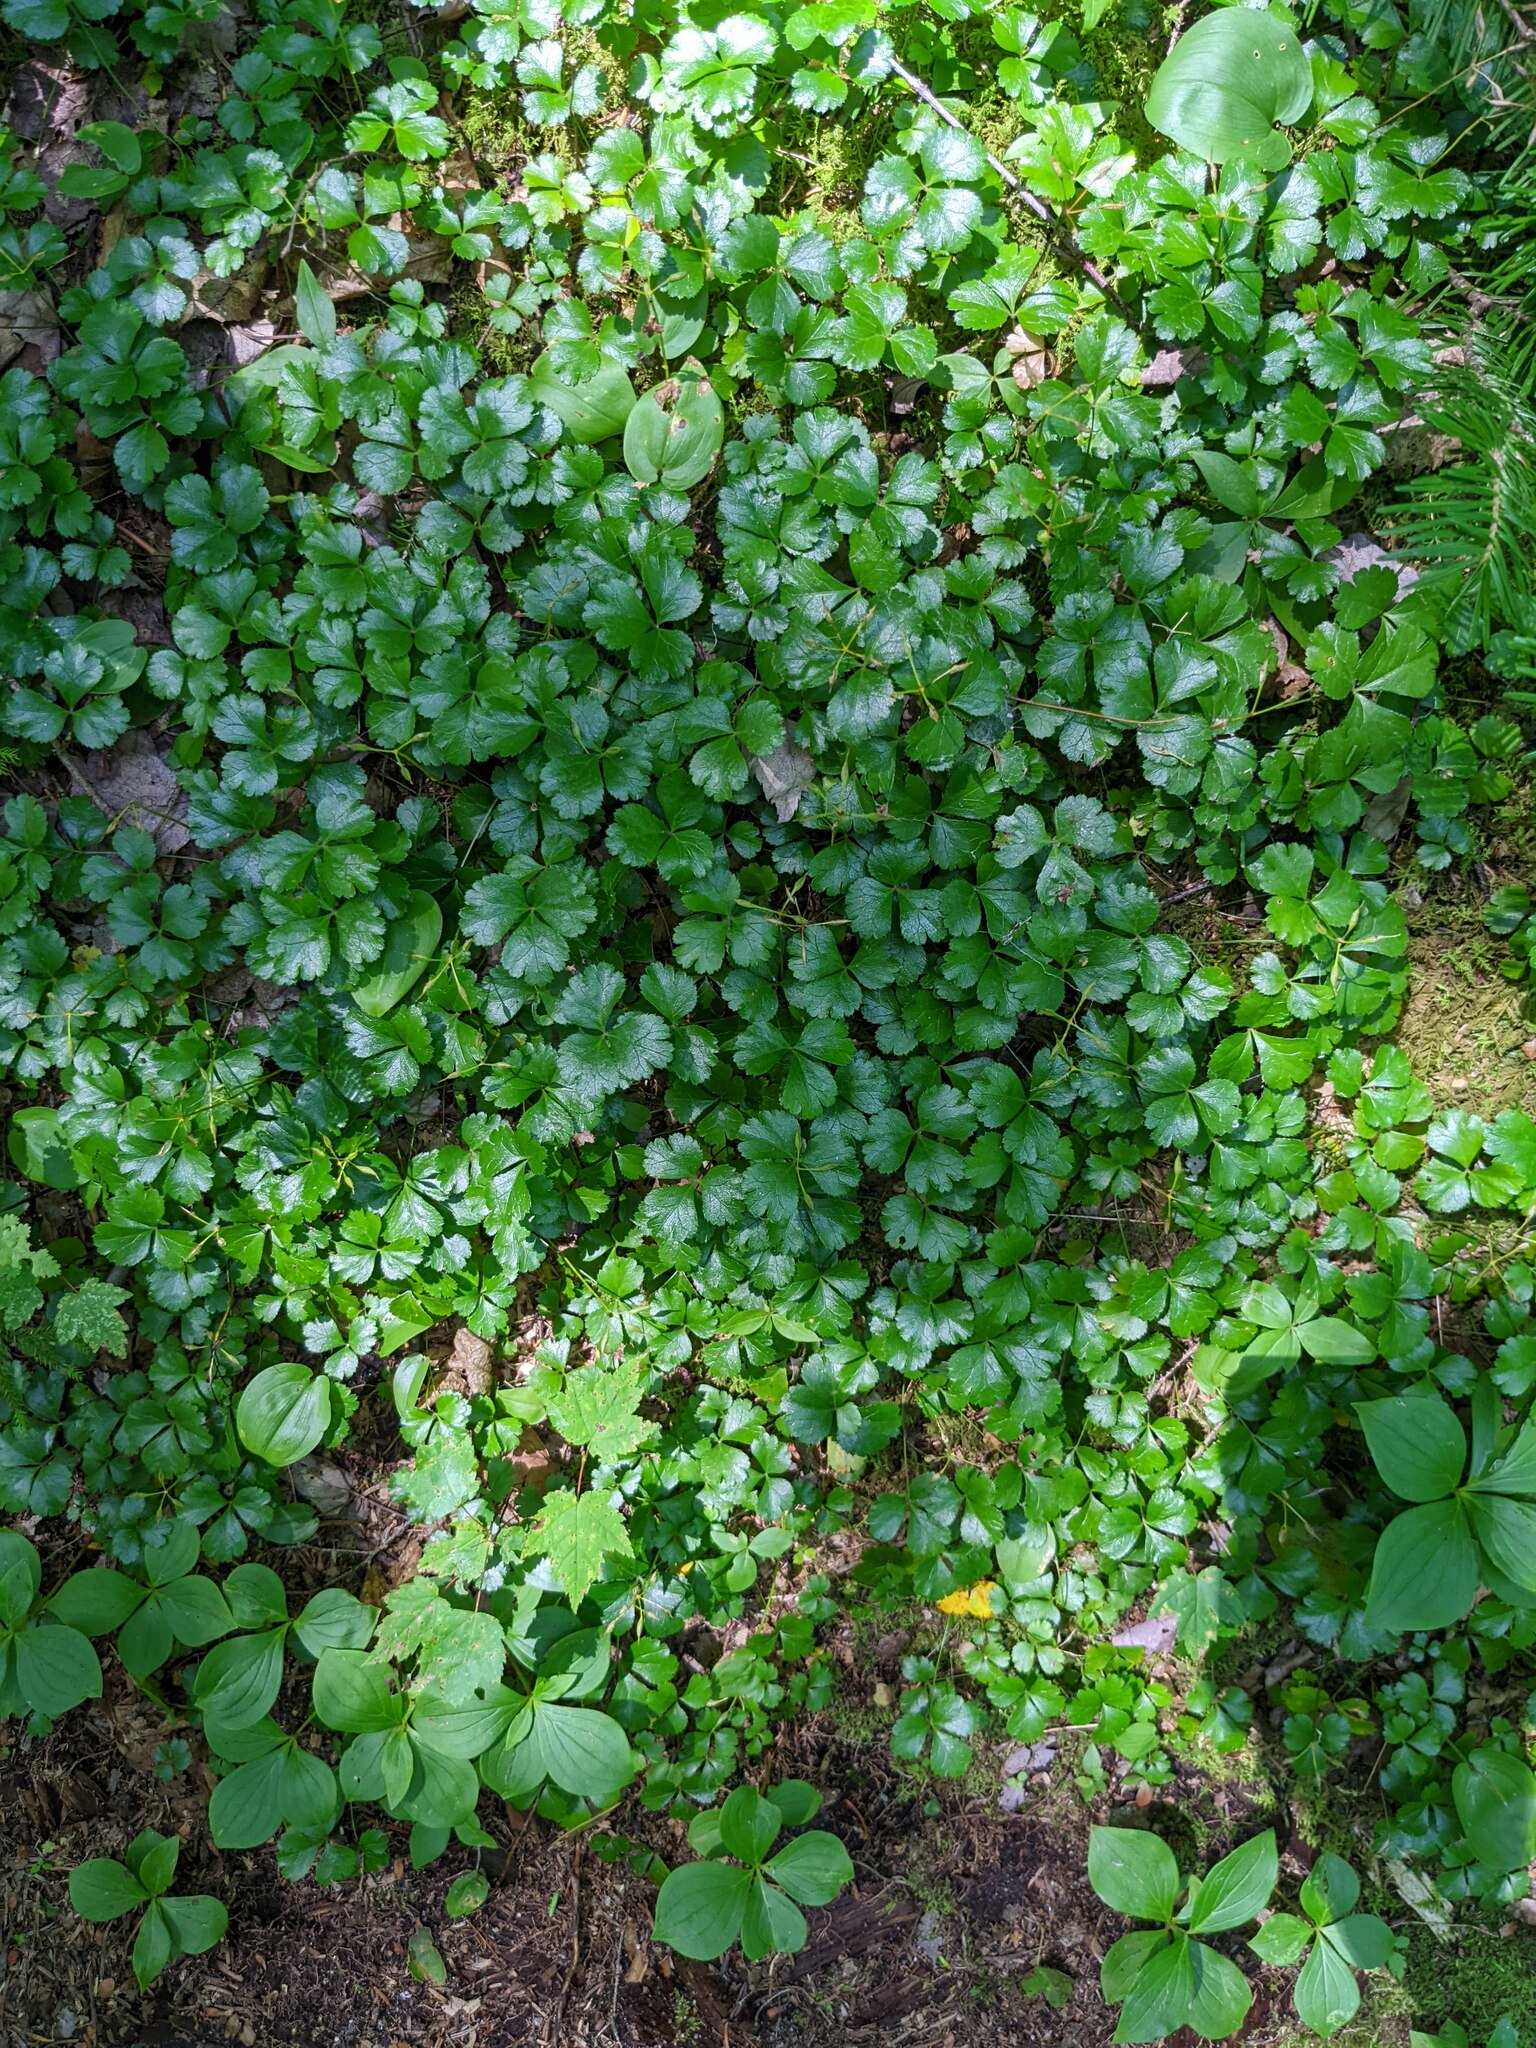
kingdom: Plantae
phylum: Tracheophyta
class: Magnoliopsida
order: Ranunculales
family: Ranunculaceae
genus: Coptis
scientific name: Coptis trifolia
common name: Canker-root
